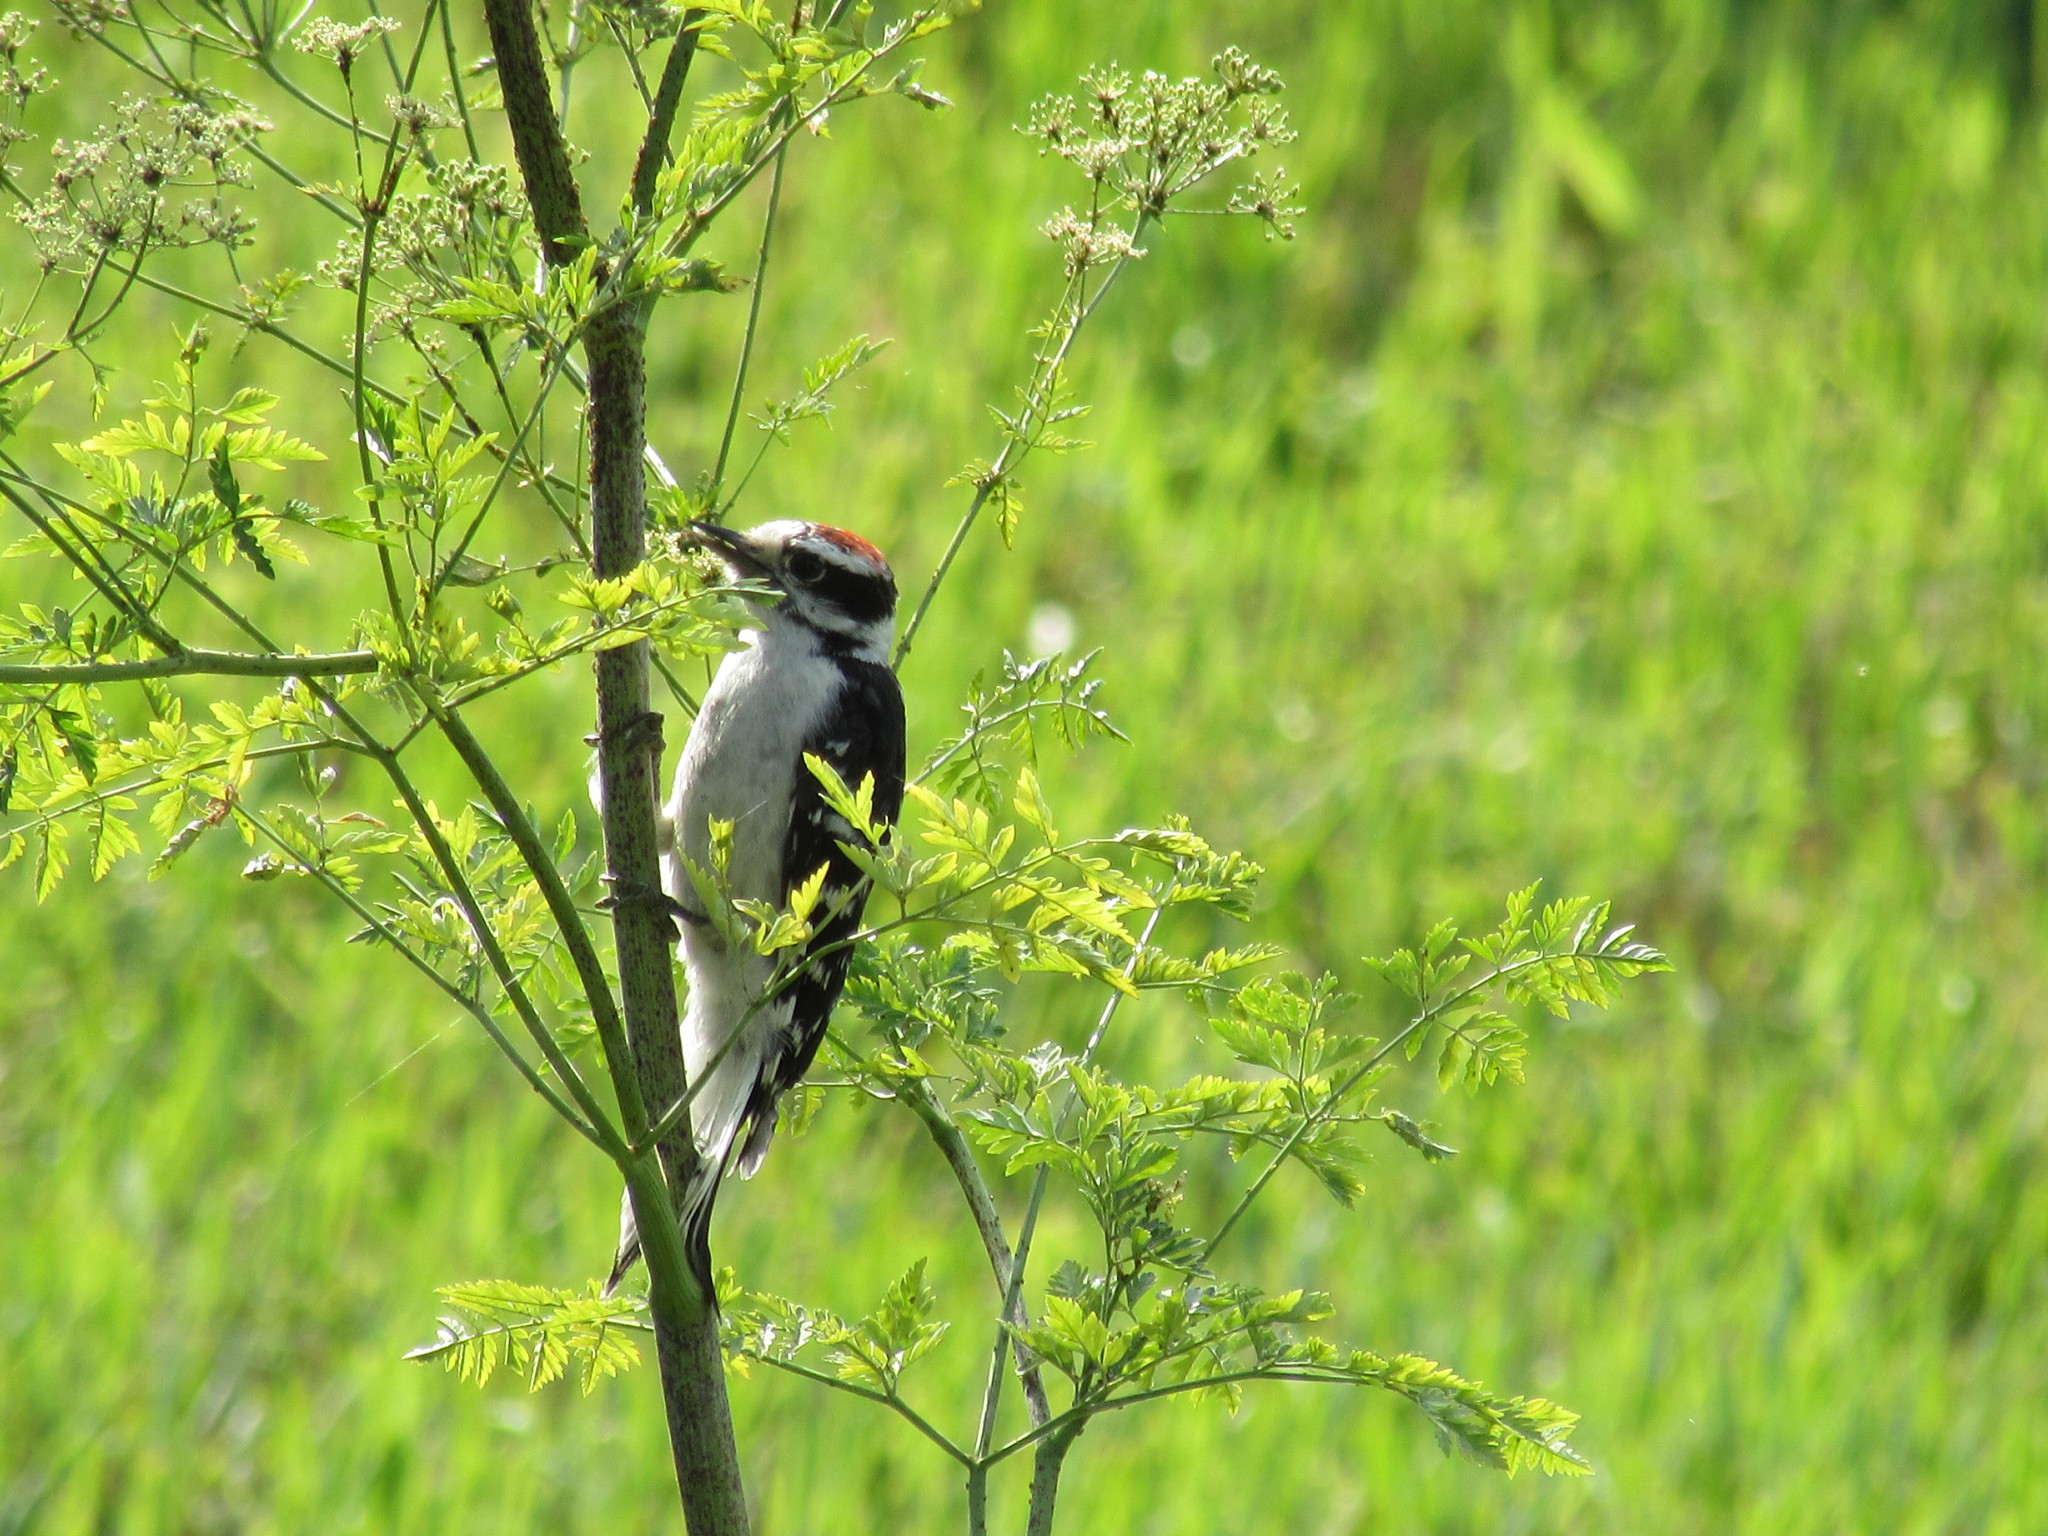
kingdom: Animalia
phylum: Chordata
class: Aves
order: Piciformes
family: Picidae
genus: Dryobates
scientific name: Dryobates pubescens
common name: Downy woodpecker
